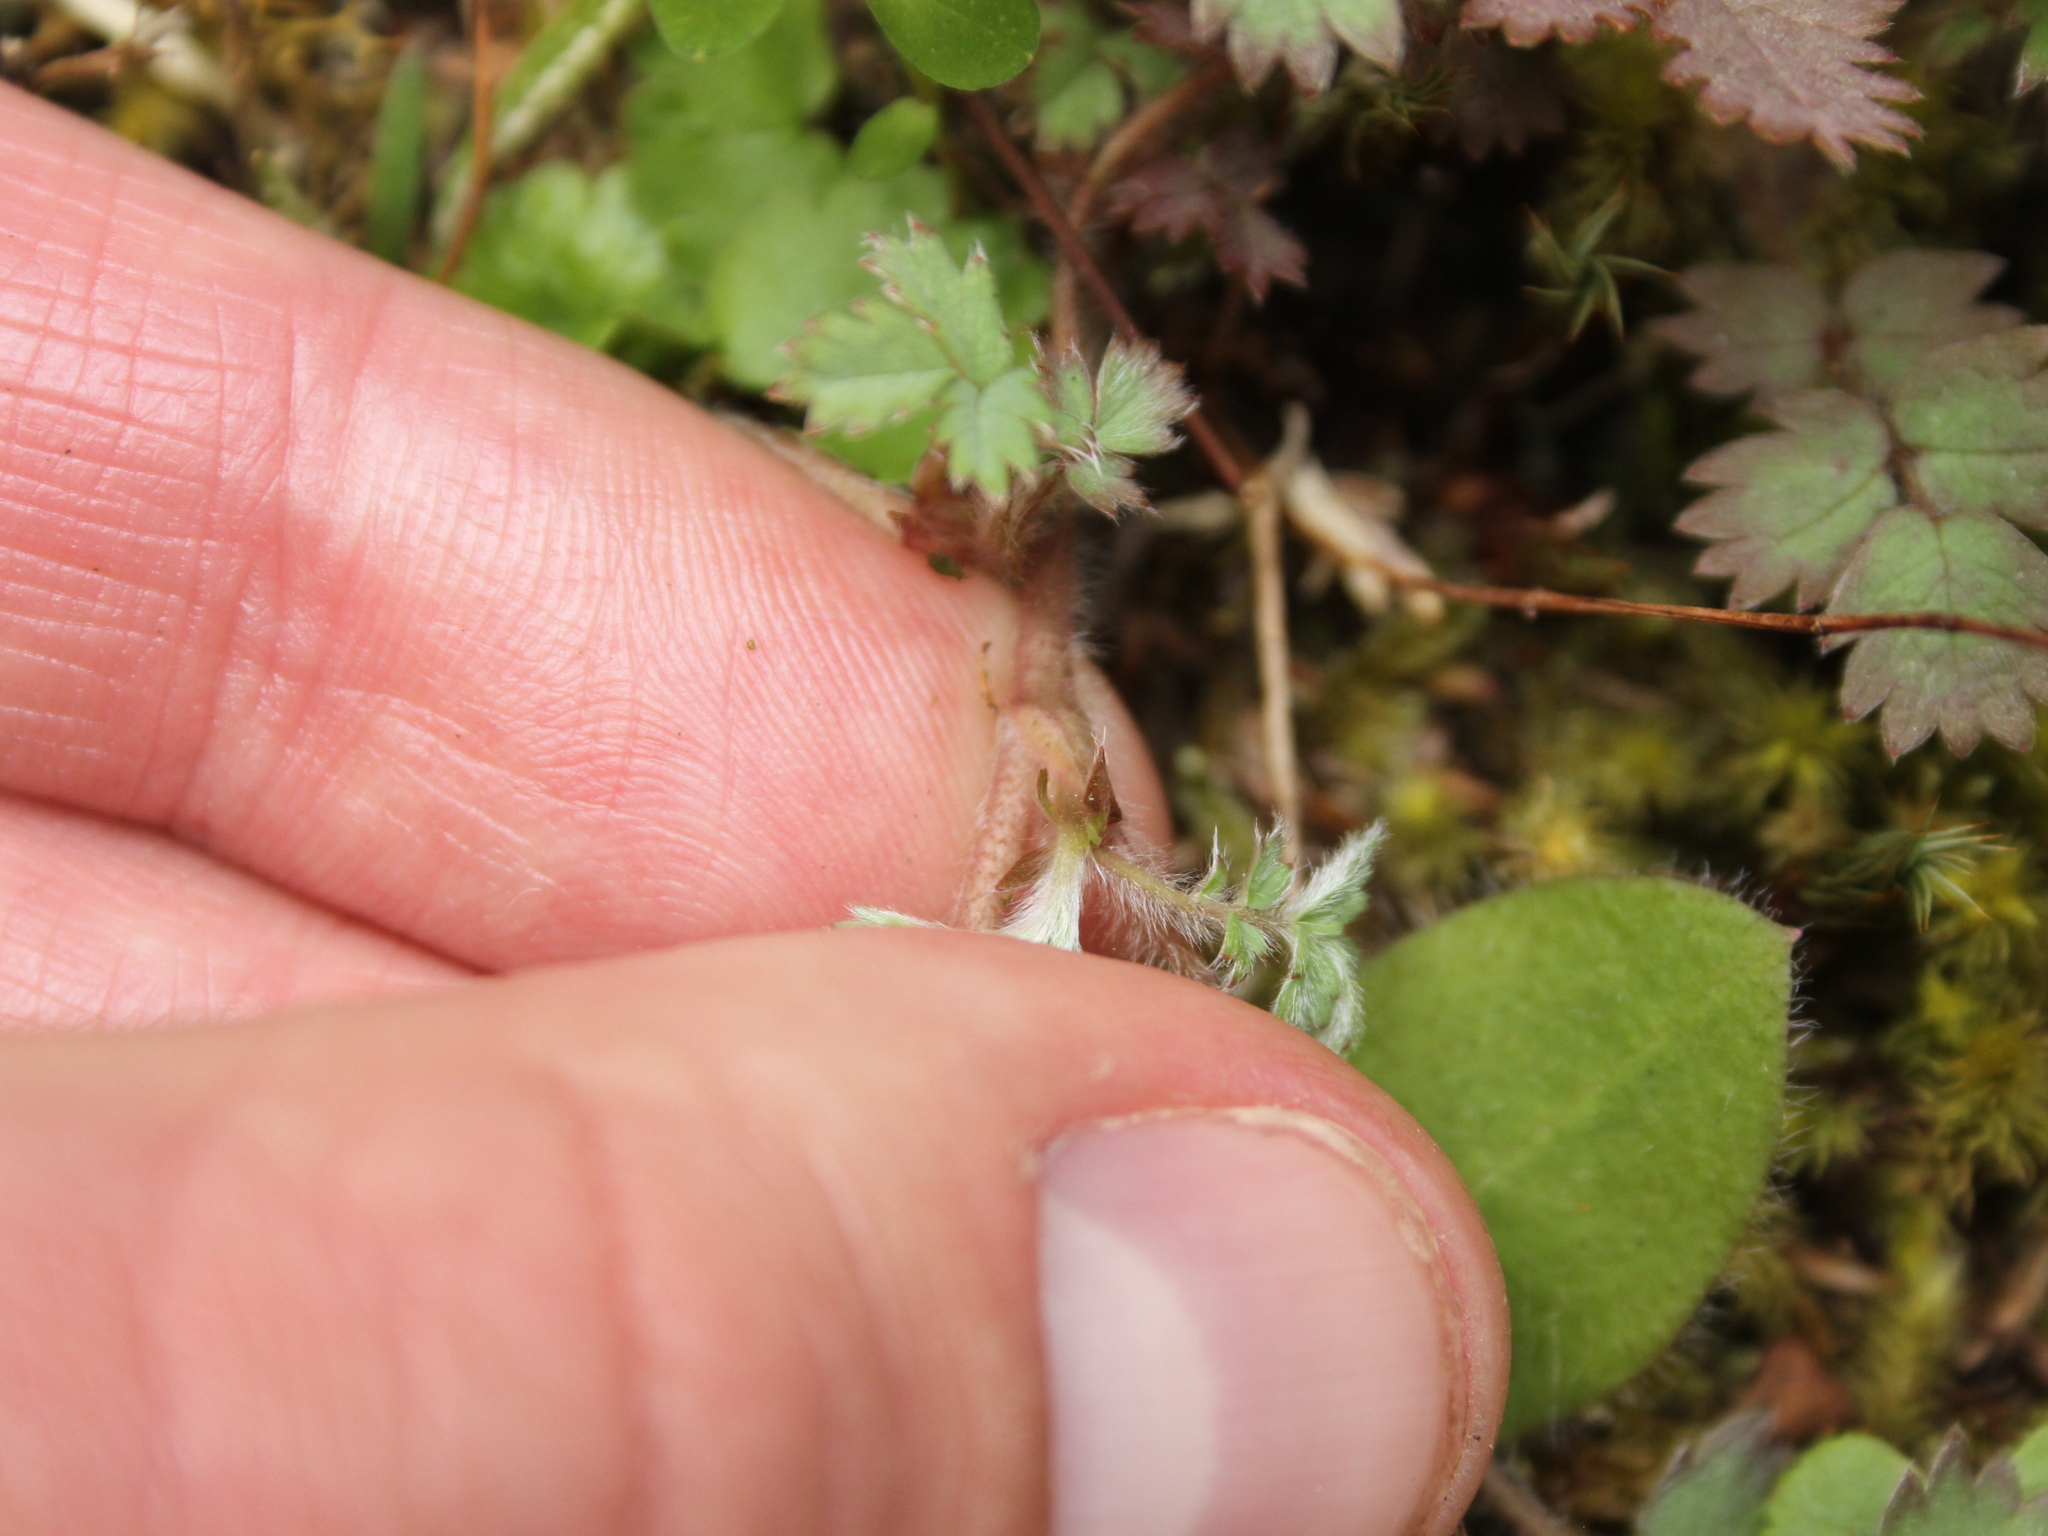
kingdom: Plantae
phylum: Tracheophyta
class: Magnoliopsida
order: Rosales
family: Rosaceae
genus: Acaena
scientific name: Acaena caesiiglauca
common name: Glaucous pirri-pirri-bur
